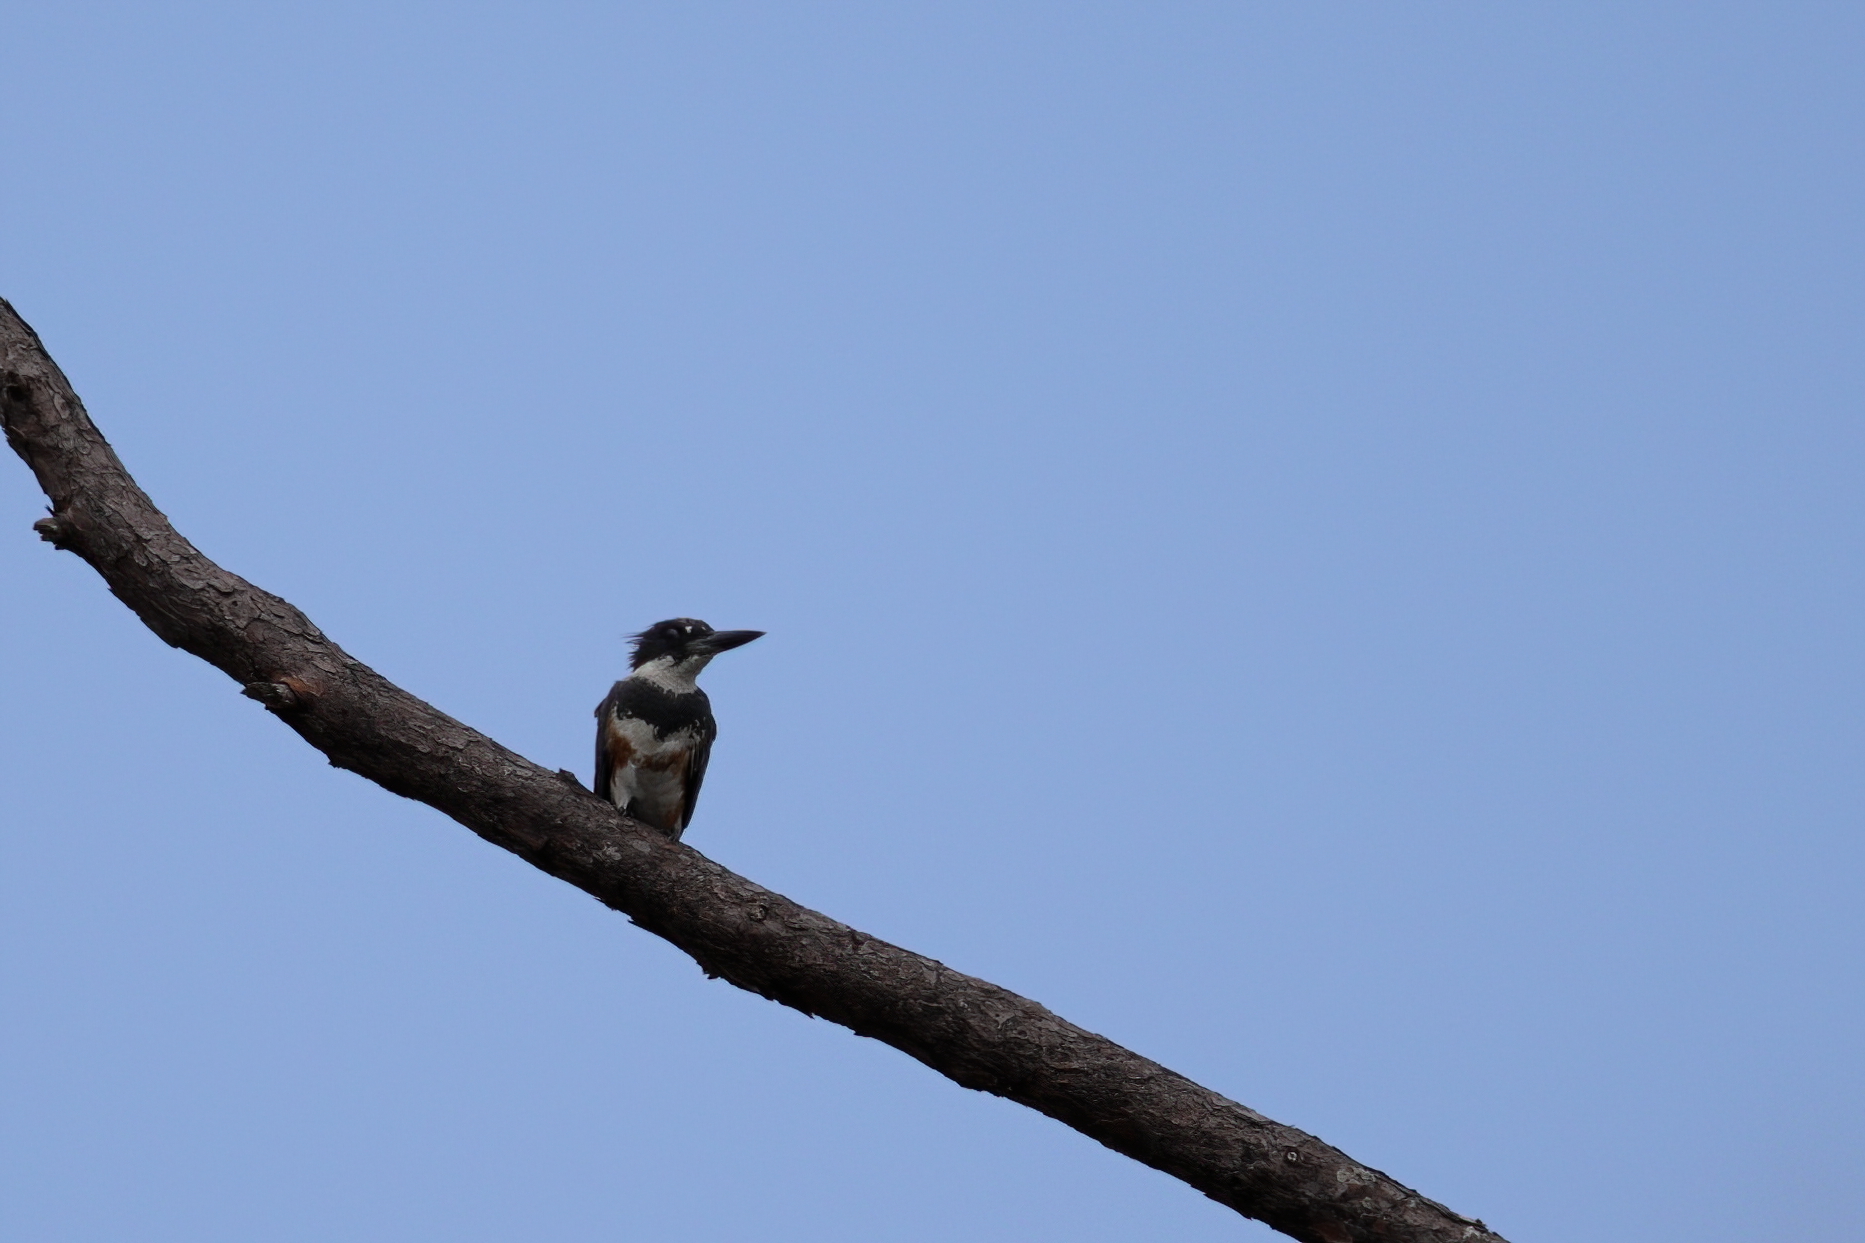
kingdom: Animalia
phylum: Chordata
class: Aves
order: Coraciiformes
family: Alcedinidae
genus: Megaceryle
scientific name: Megaceryle alcyon
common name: Belted kingfisher
